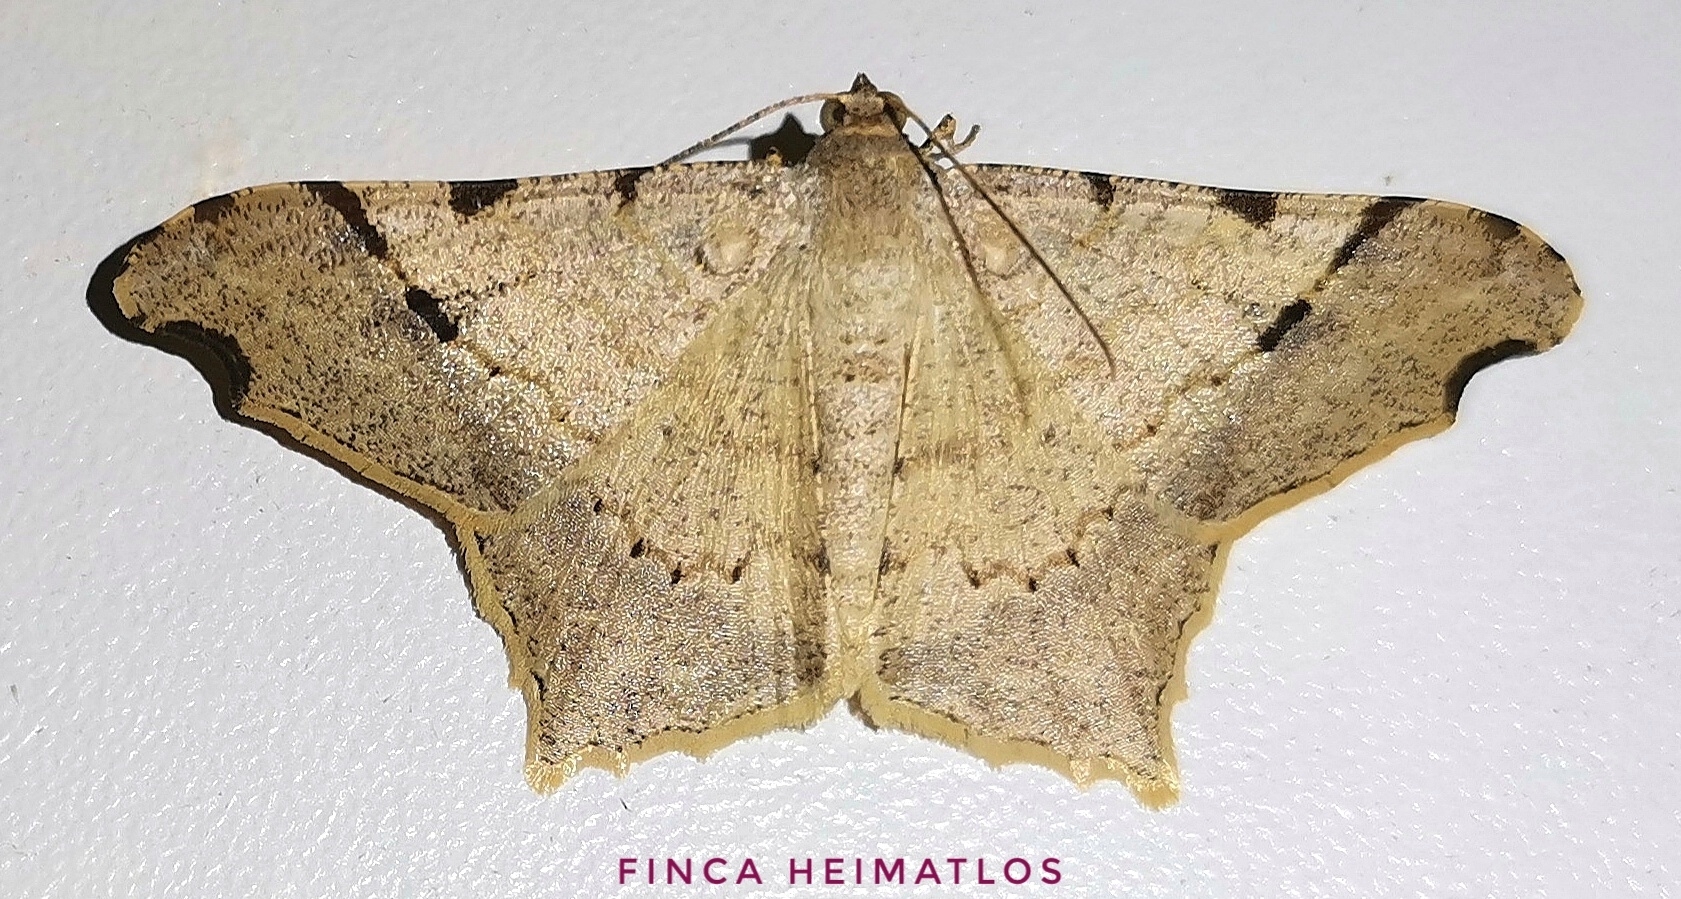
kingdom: Animalia
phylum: Arthropoda
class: Insecta
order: Lepidoptera
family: Geometridae
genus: Macaria
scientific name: Macaria achetata
